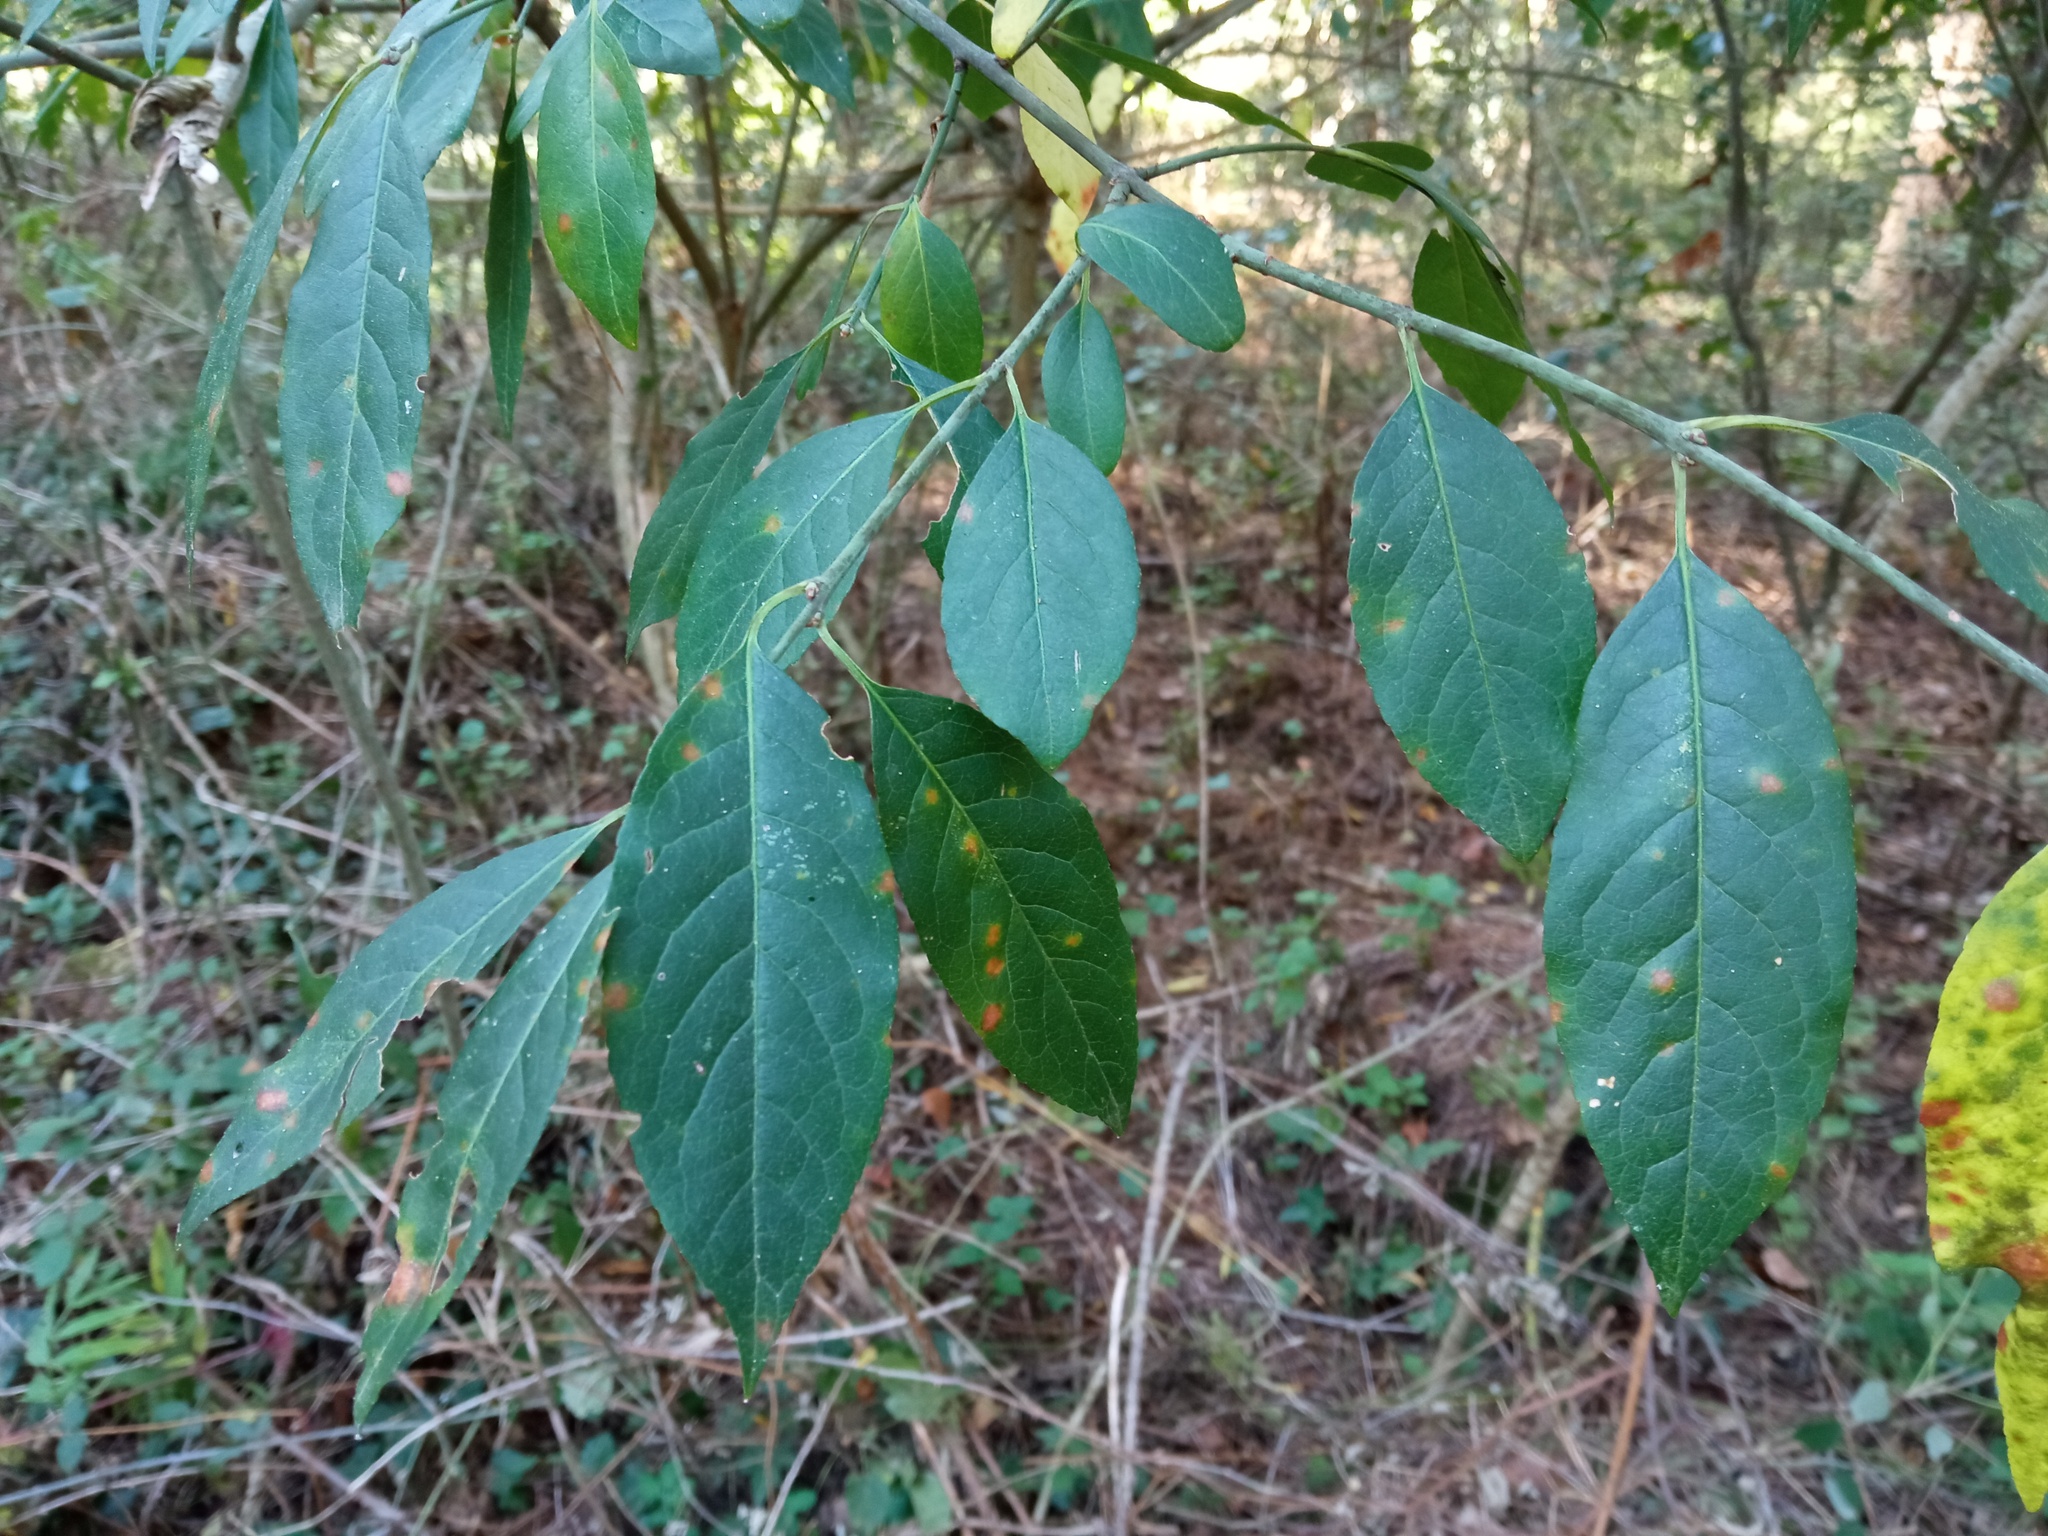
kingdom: Plantae
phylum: Tracheophyta
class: Magnoliopsida
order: Celastrales
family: Celastraceae
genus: Euonymus
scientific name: Euonymus europaeus
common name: Spindle
